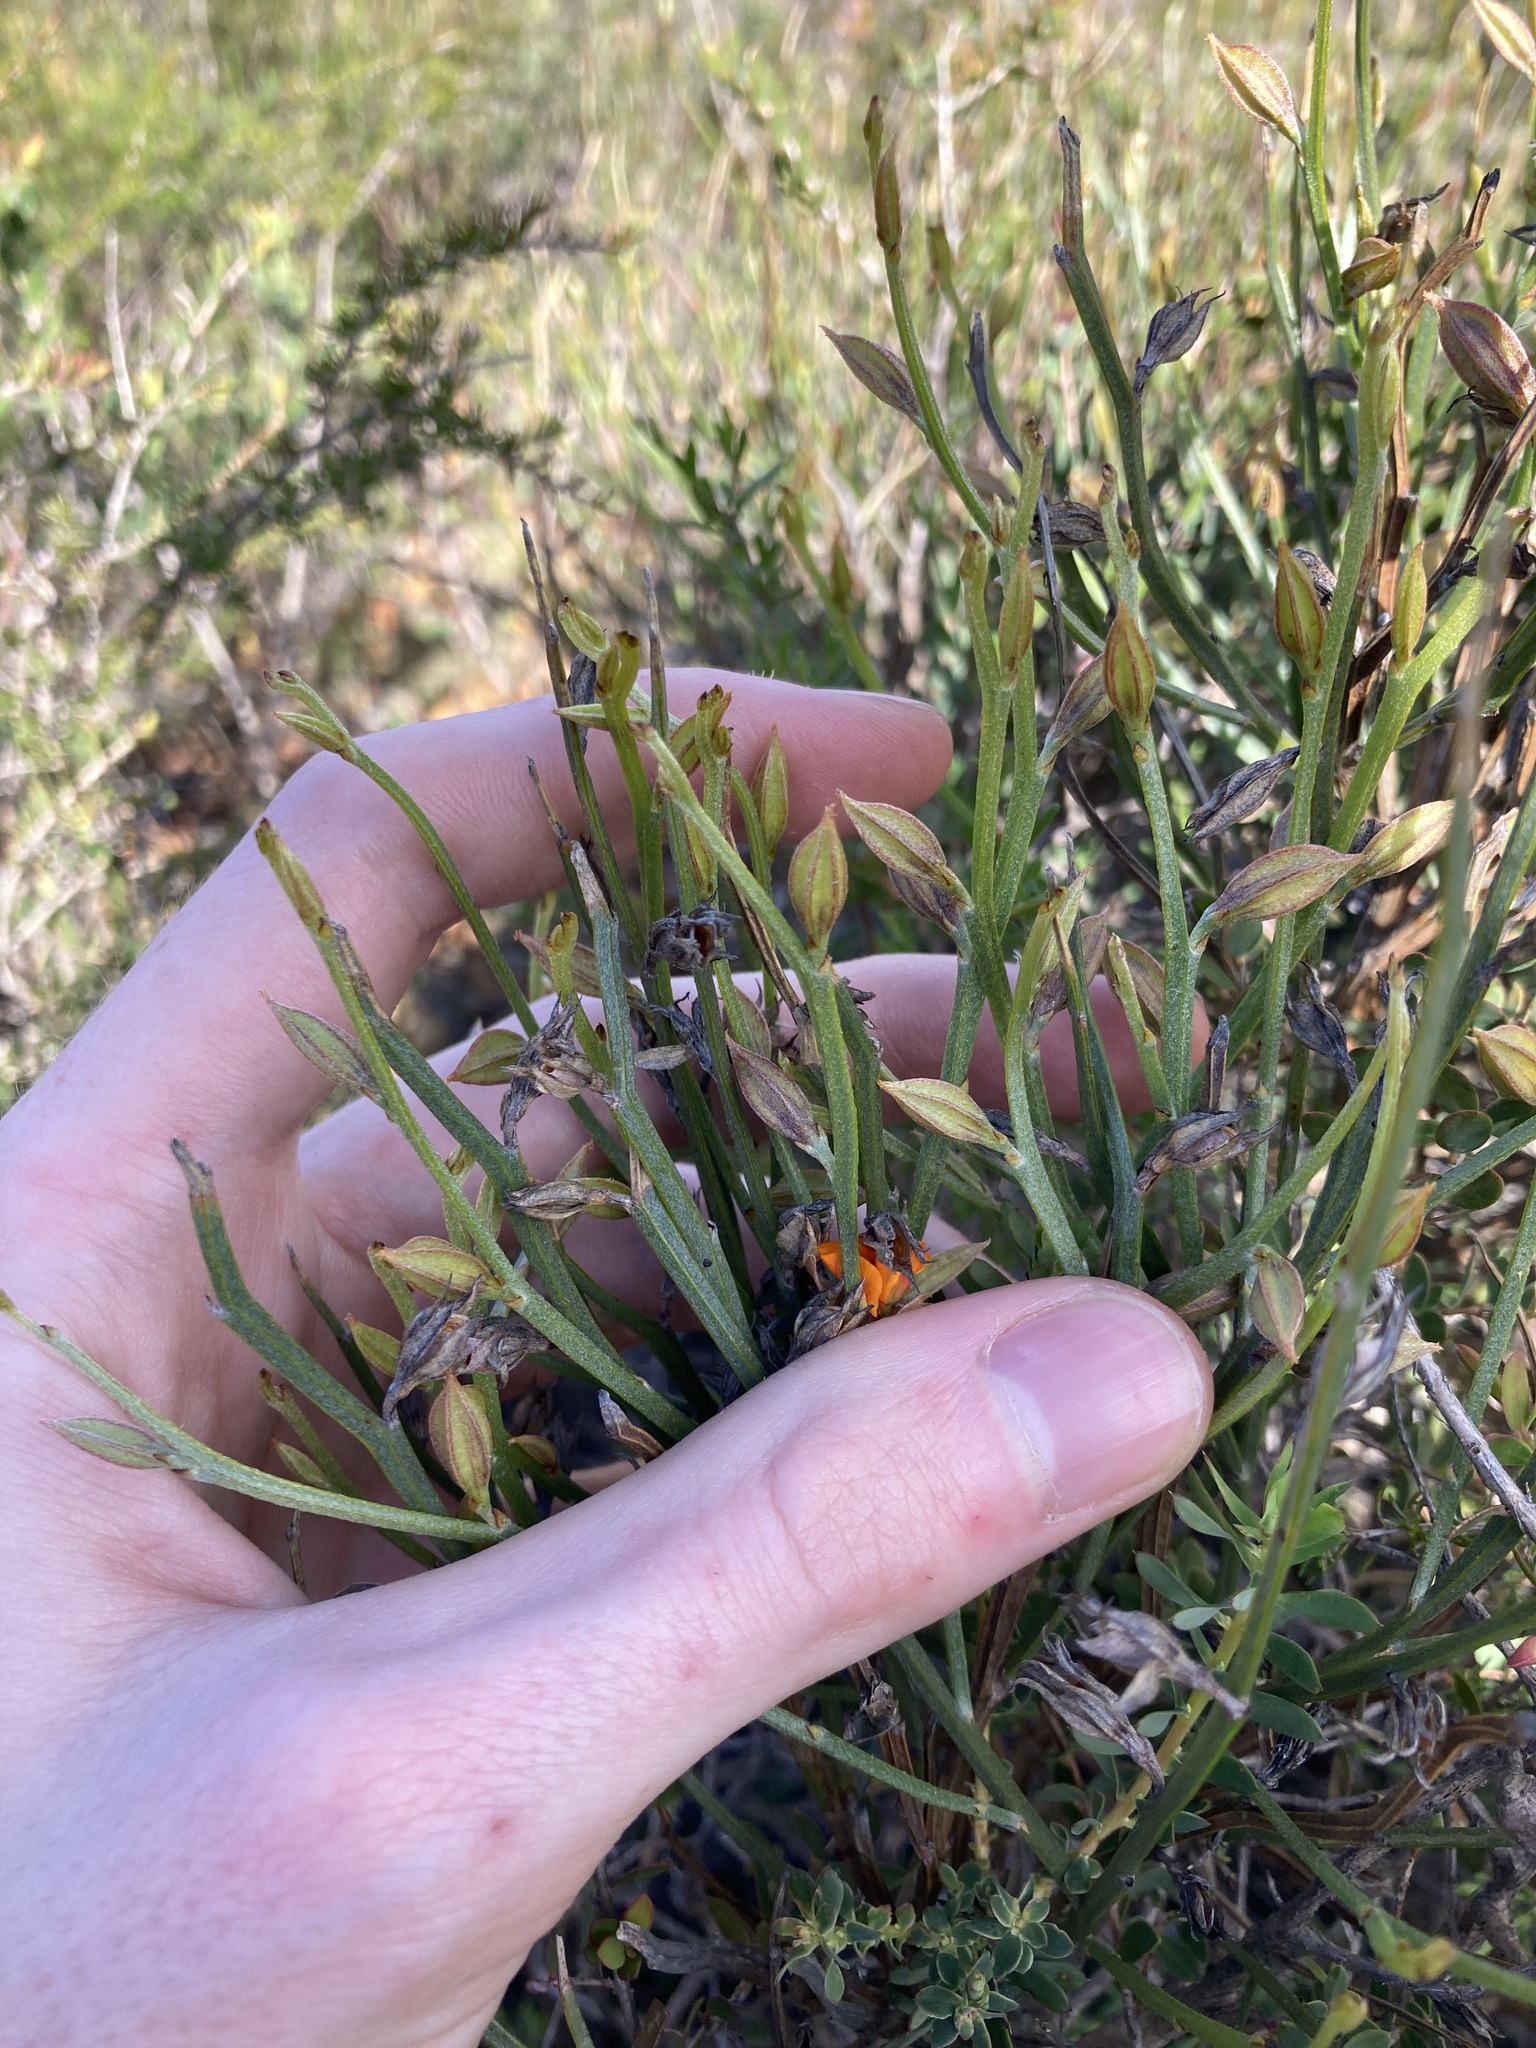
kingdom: Plantae
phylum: Tracheophyta
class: Magnoliopsida
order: Fabales
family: Fabaceae
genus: Jacksonia
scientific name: Jacksonia angulata
